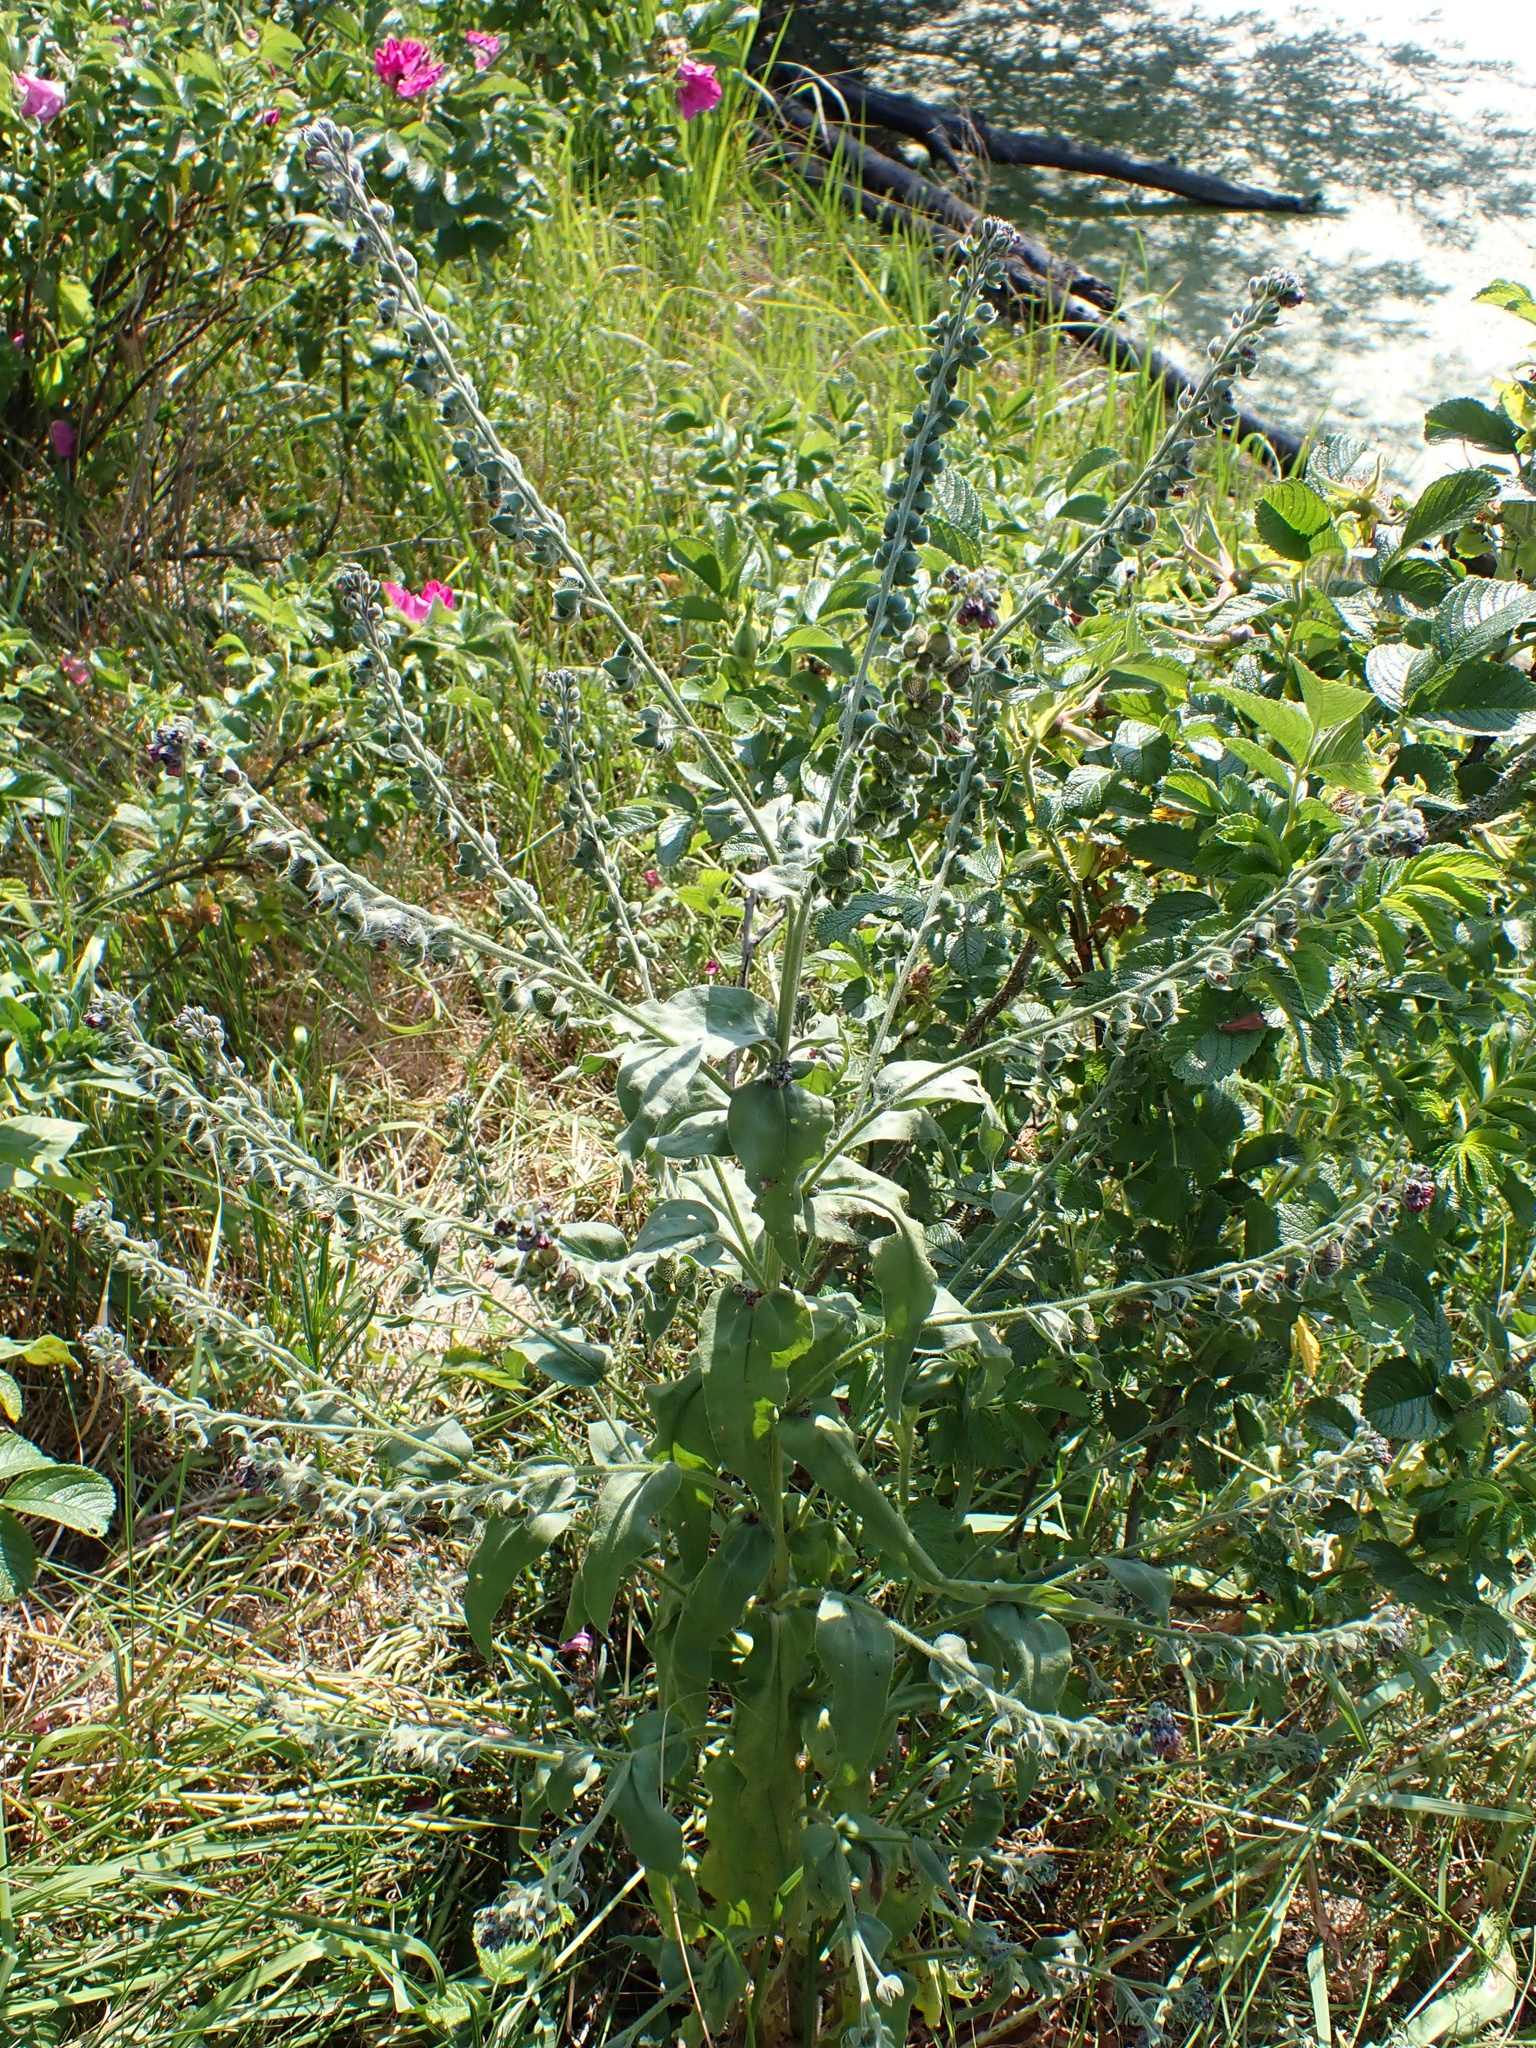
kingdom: Plantae
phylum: Tracheophyta
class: Magnoliopsida
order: Boraginales
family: Boraginaceae
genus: Cynoglossum
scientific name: Cynoglossum officinale
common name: Hound's-tongue
